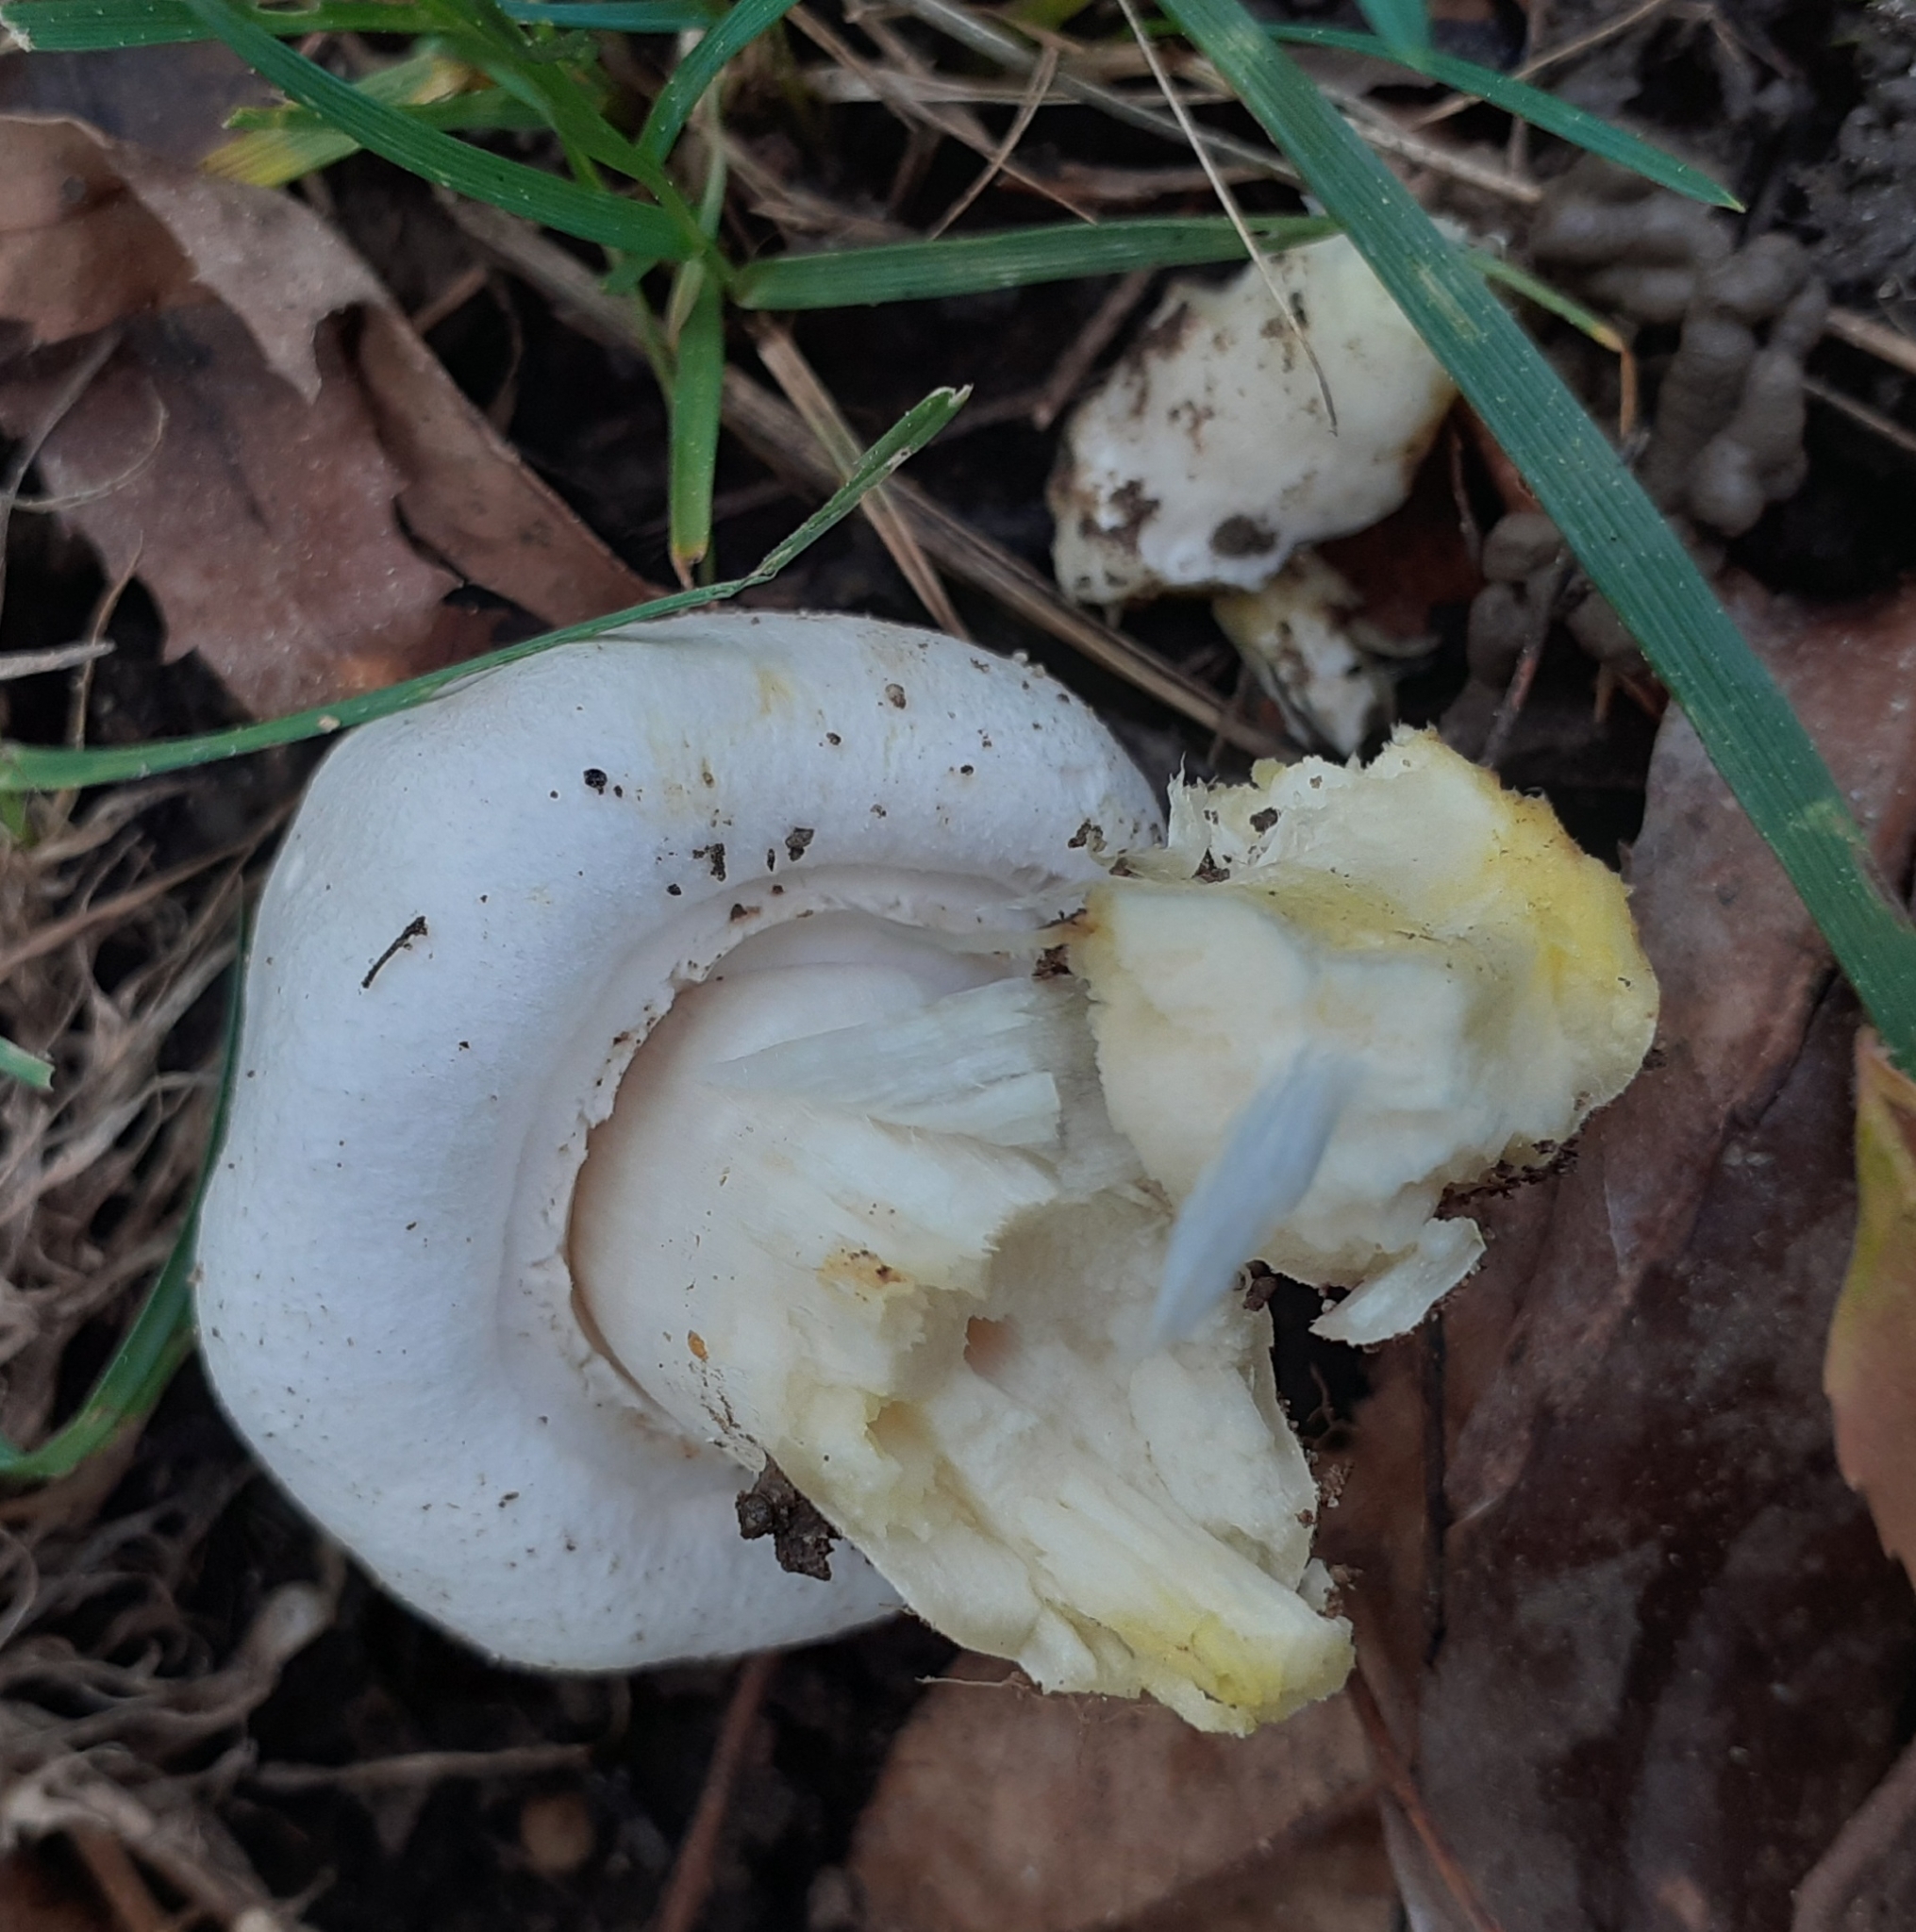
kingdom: Fungi
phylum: Basidiomycota
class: Agaricomycetes
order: Agaricales
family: Agaricaceae
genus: Agaricus
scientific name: Agaricus xanthodermus
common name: Yellow stainer
